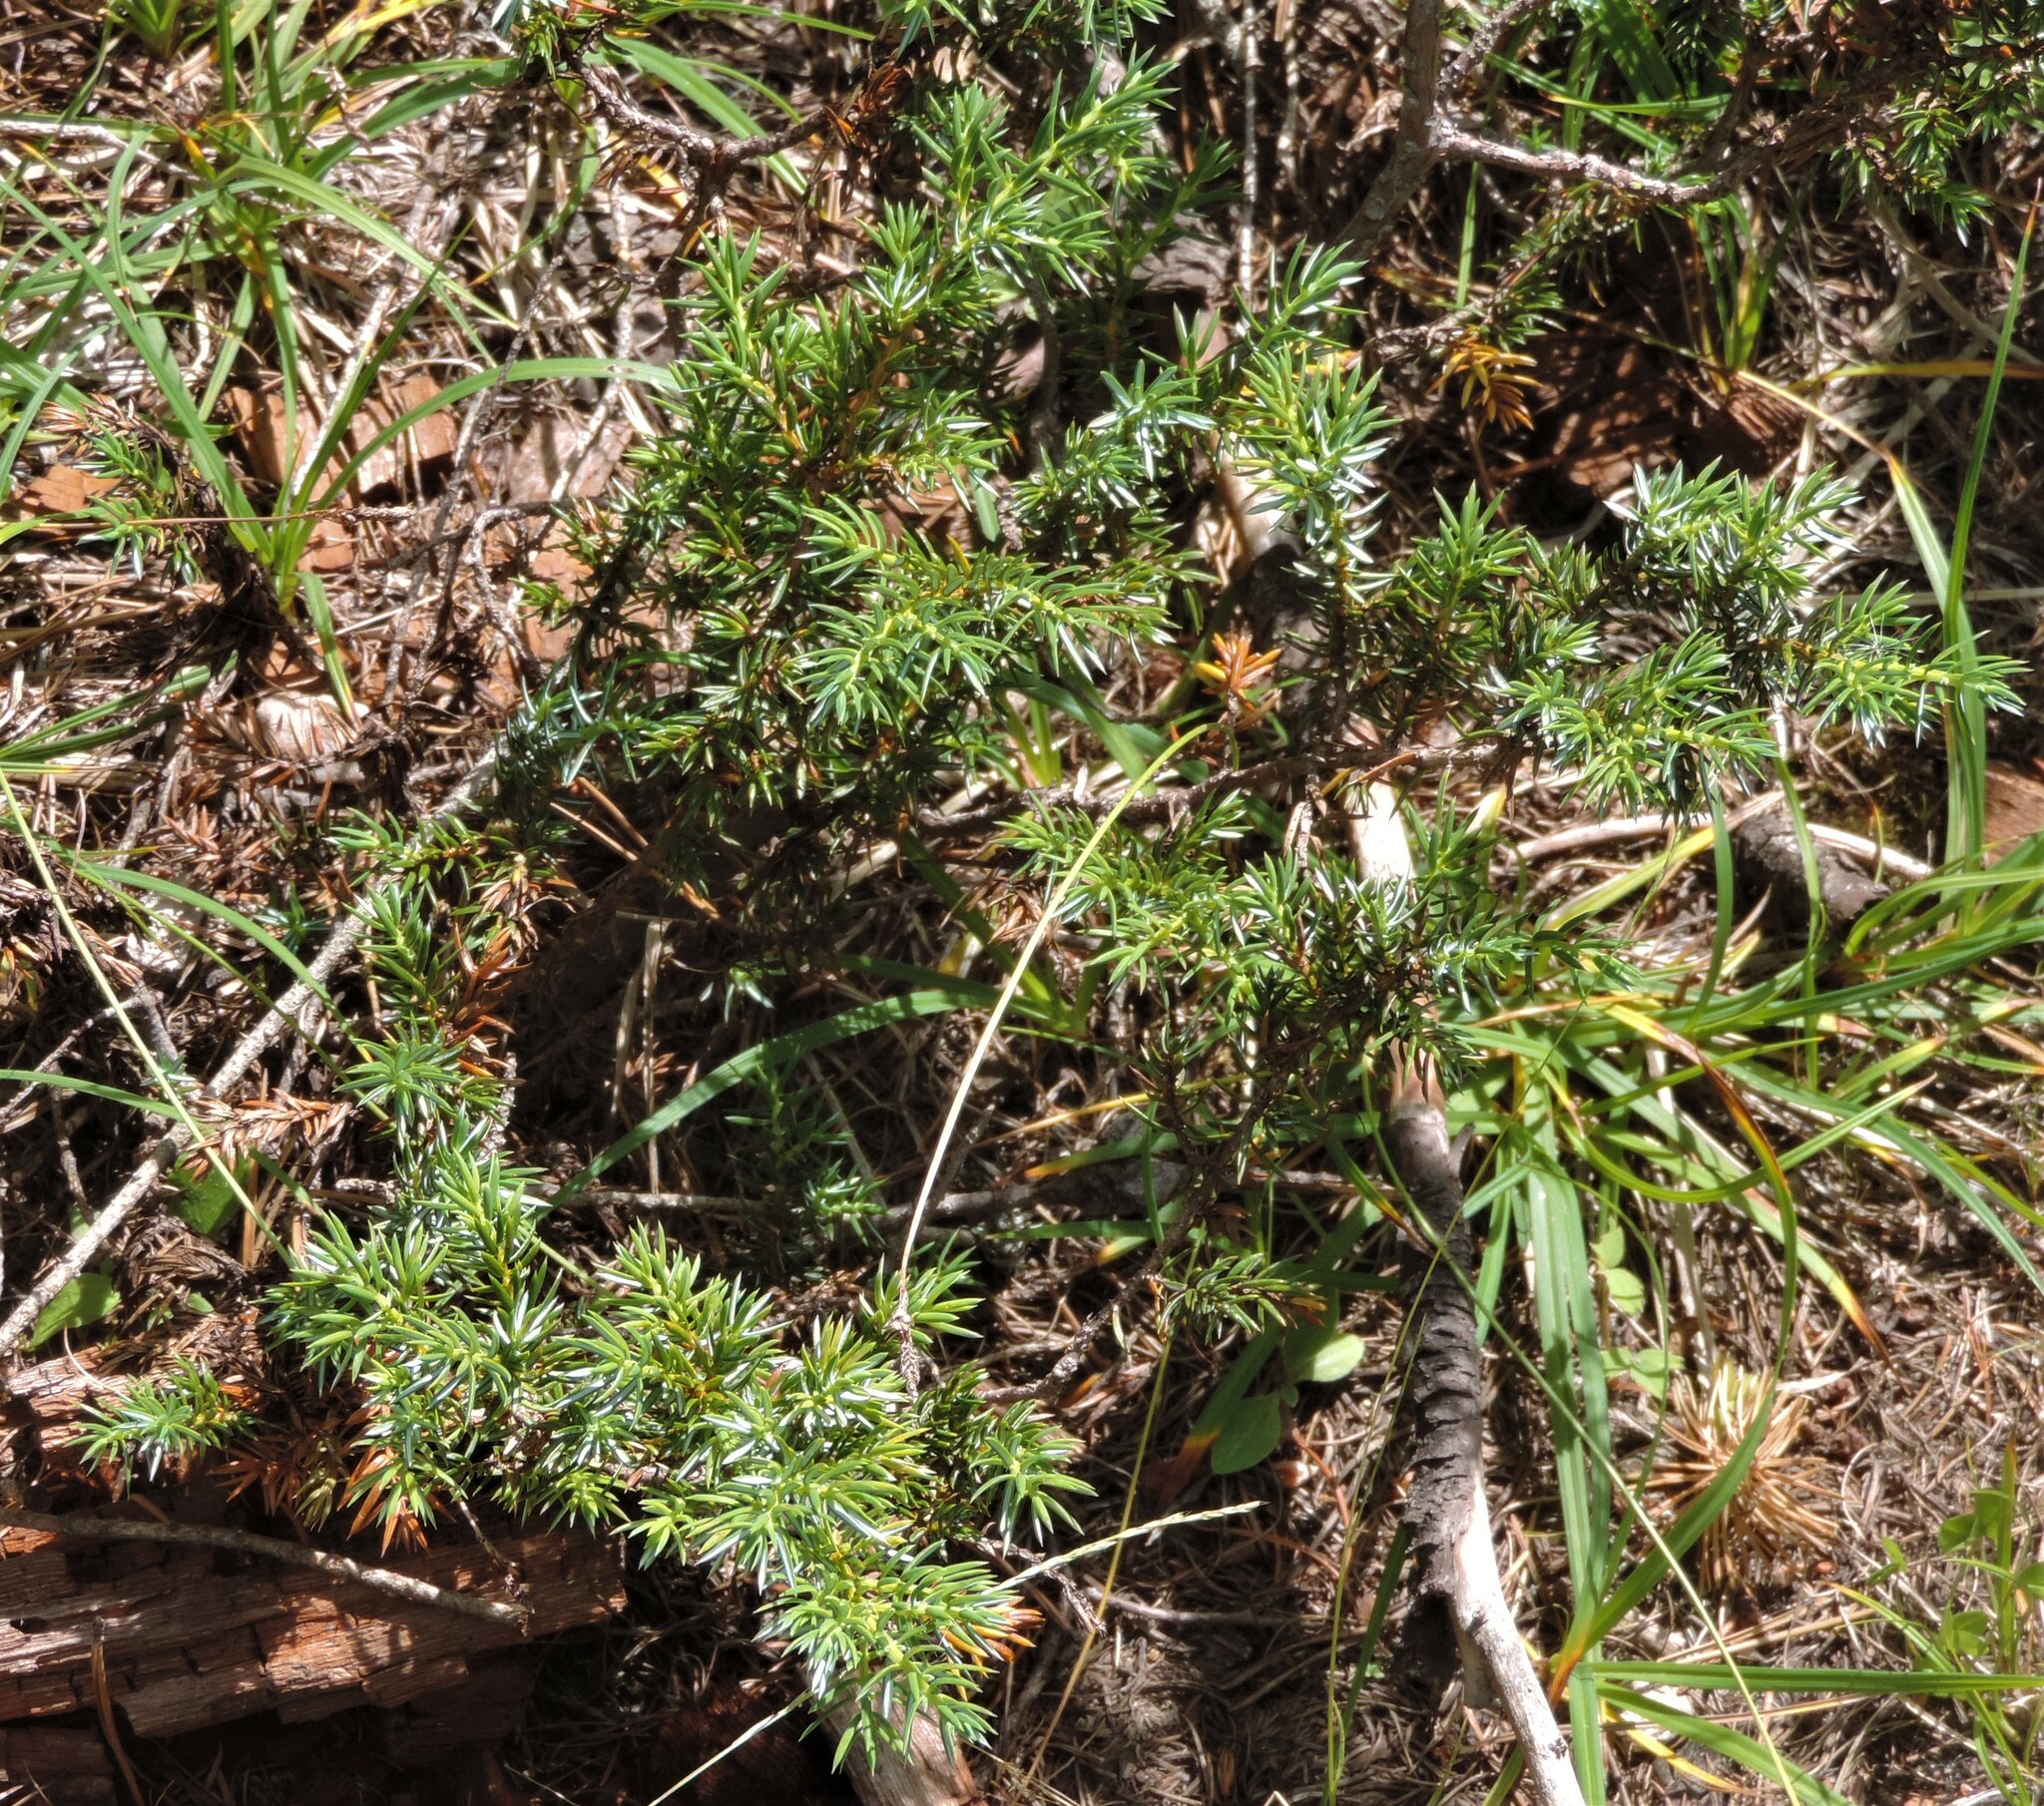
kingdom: Plantae
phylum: Tracheophyta
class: Pinopsida
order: Pinales
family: Cupressaceae
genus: Juniperus
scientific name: Juniperus communis
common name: Common juniper
